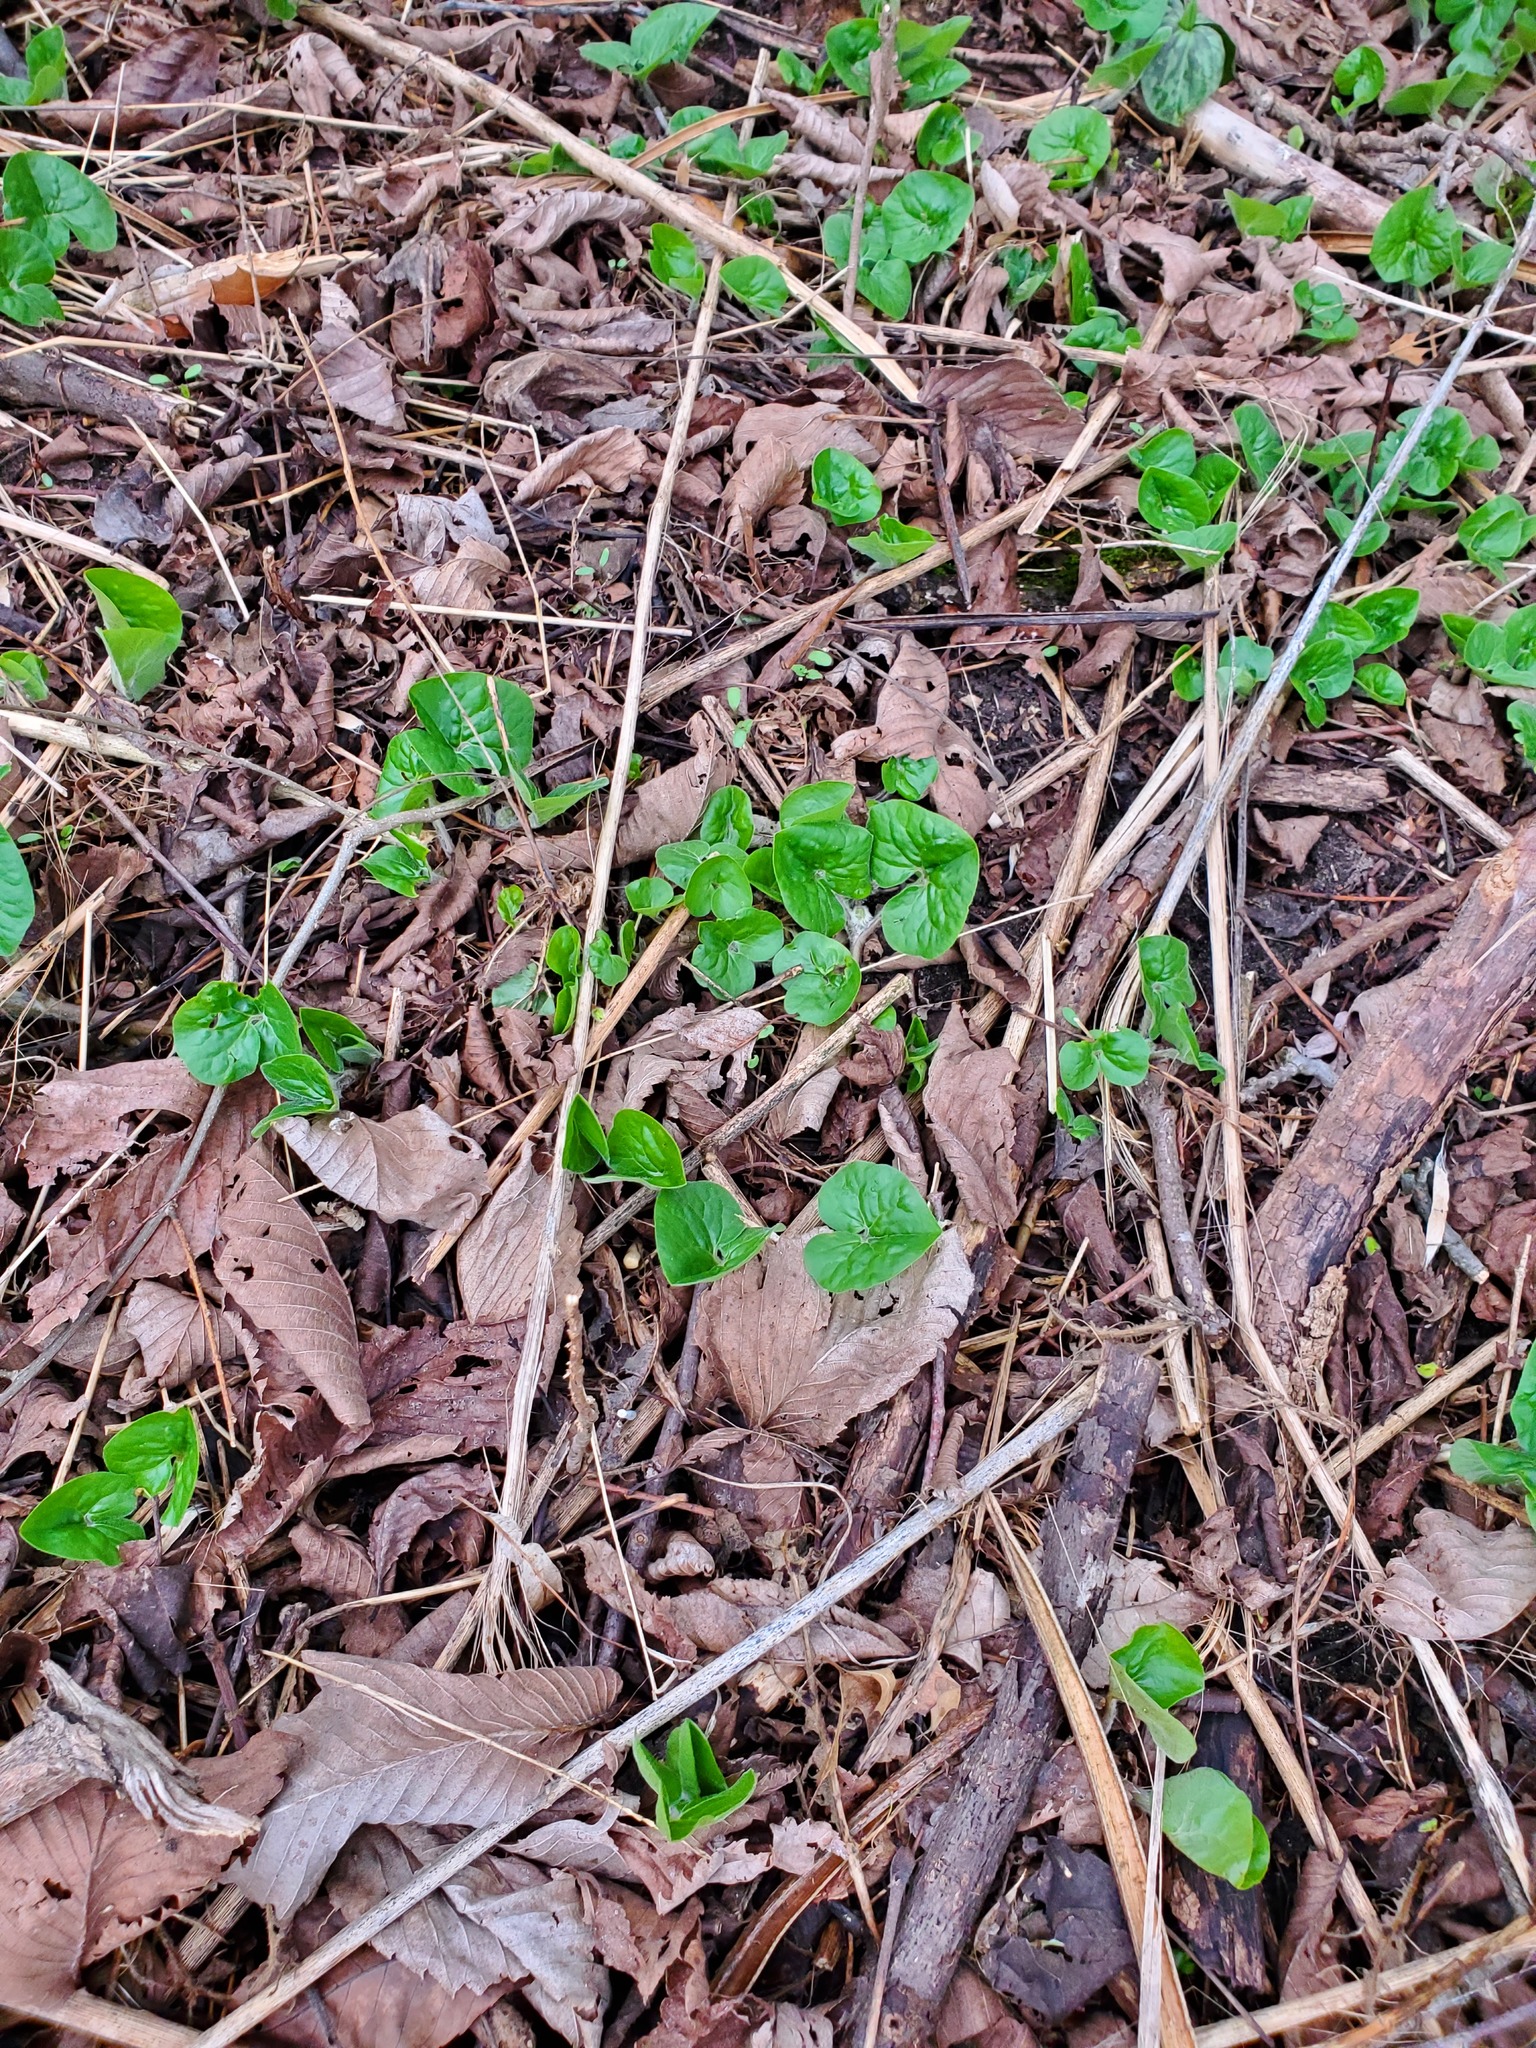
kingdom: Plantae
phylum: Tracheophyta
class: Magnoliopsida
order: Piperales
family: Aristolochiaceae
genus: Asarum
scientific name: Asarum canadense
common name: Wild ginger
